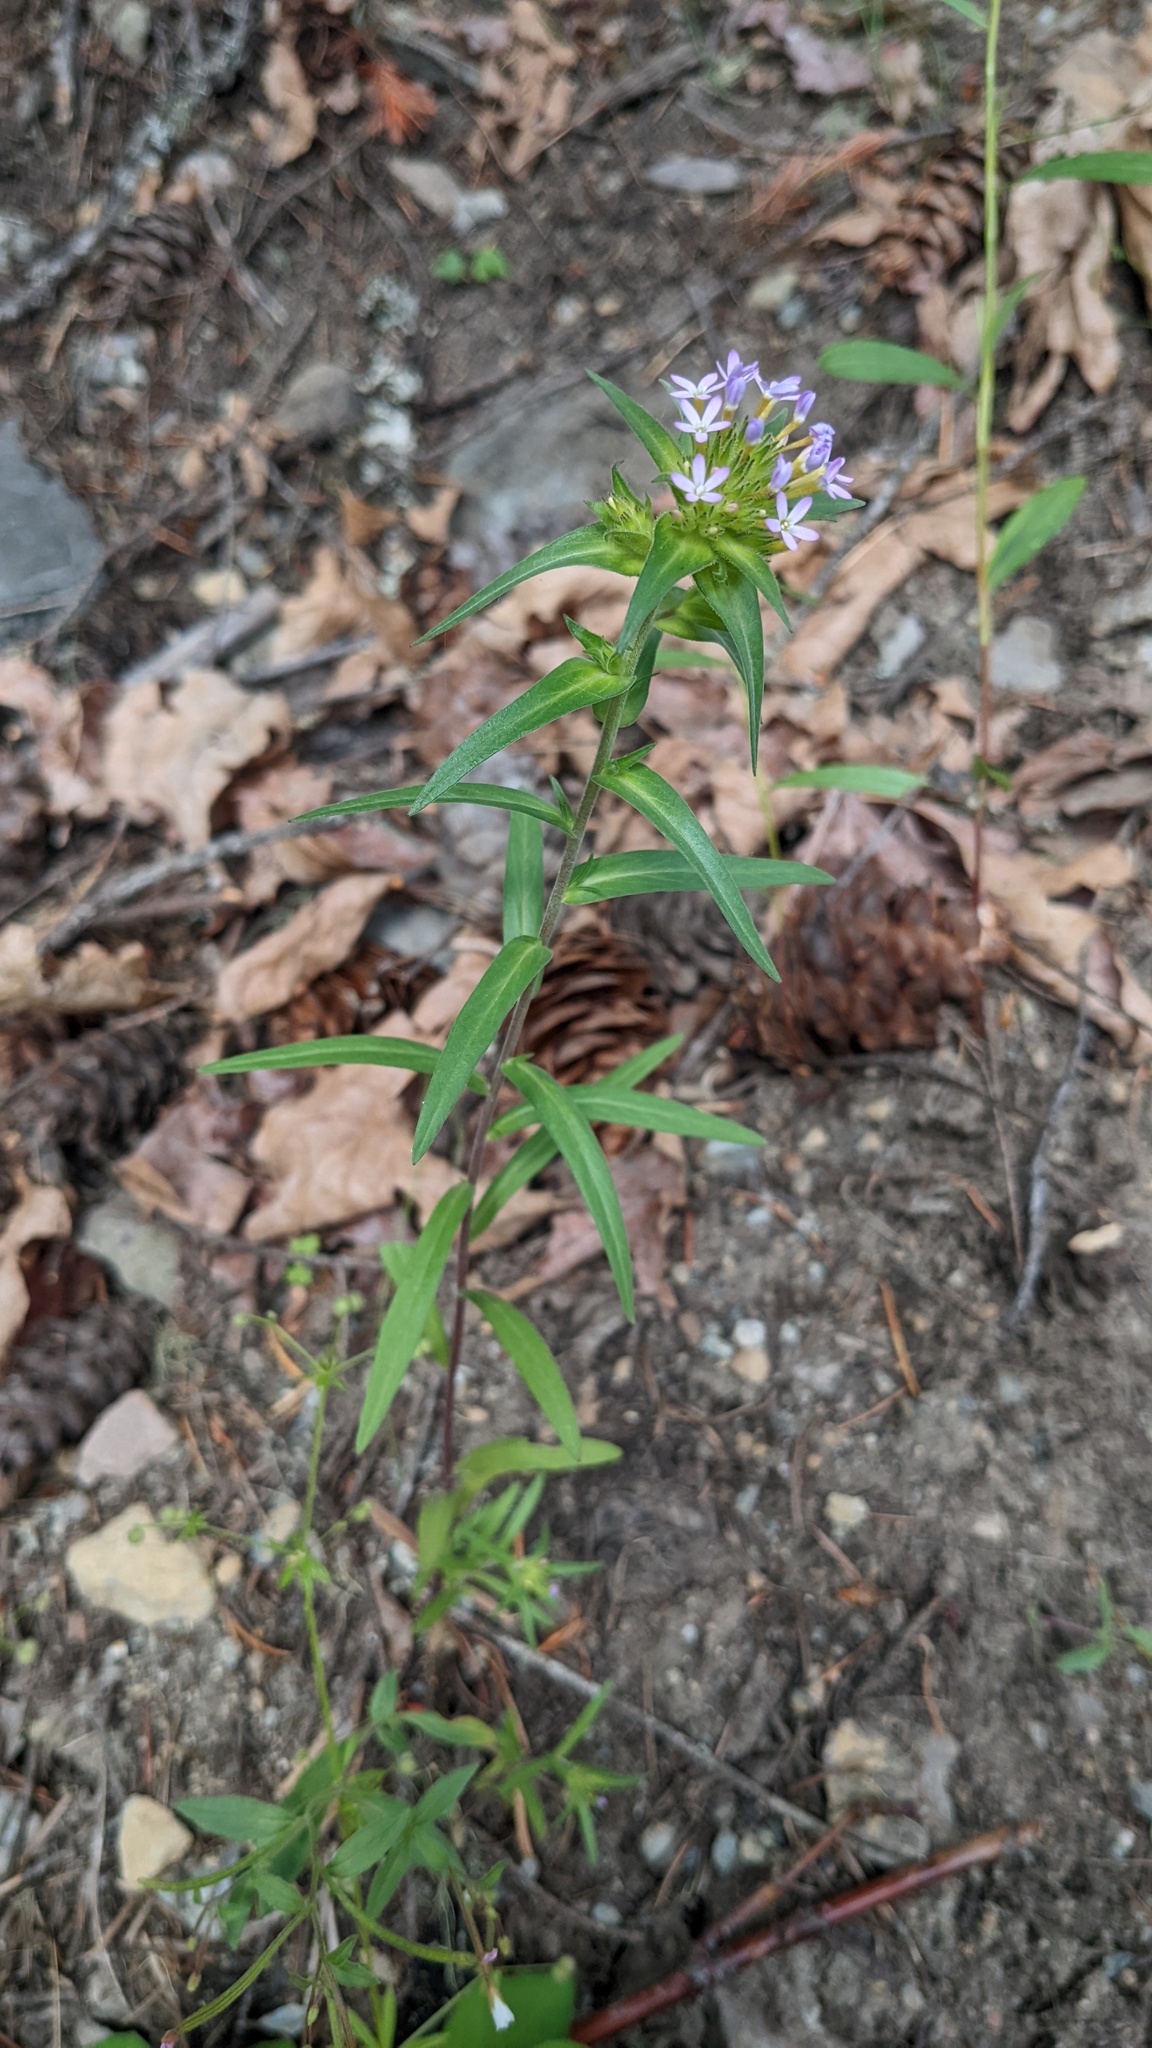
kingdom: Plantae
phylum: Tracheophyta
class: Magnoliopsida
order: Ericales
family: Polemoniaceae
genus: Collomia
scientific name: Collomia linearis
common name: Tiny trumpet
